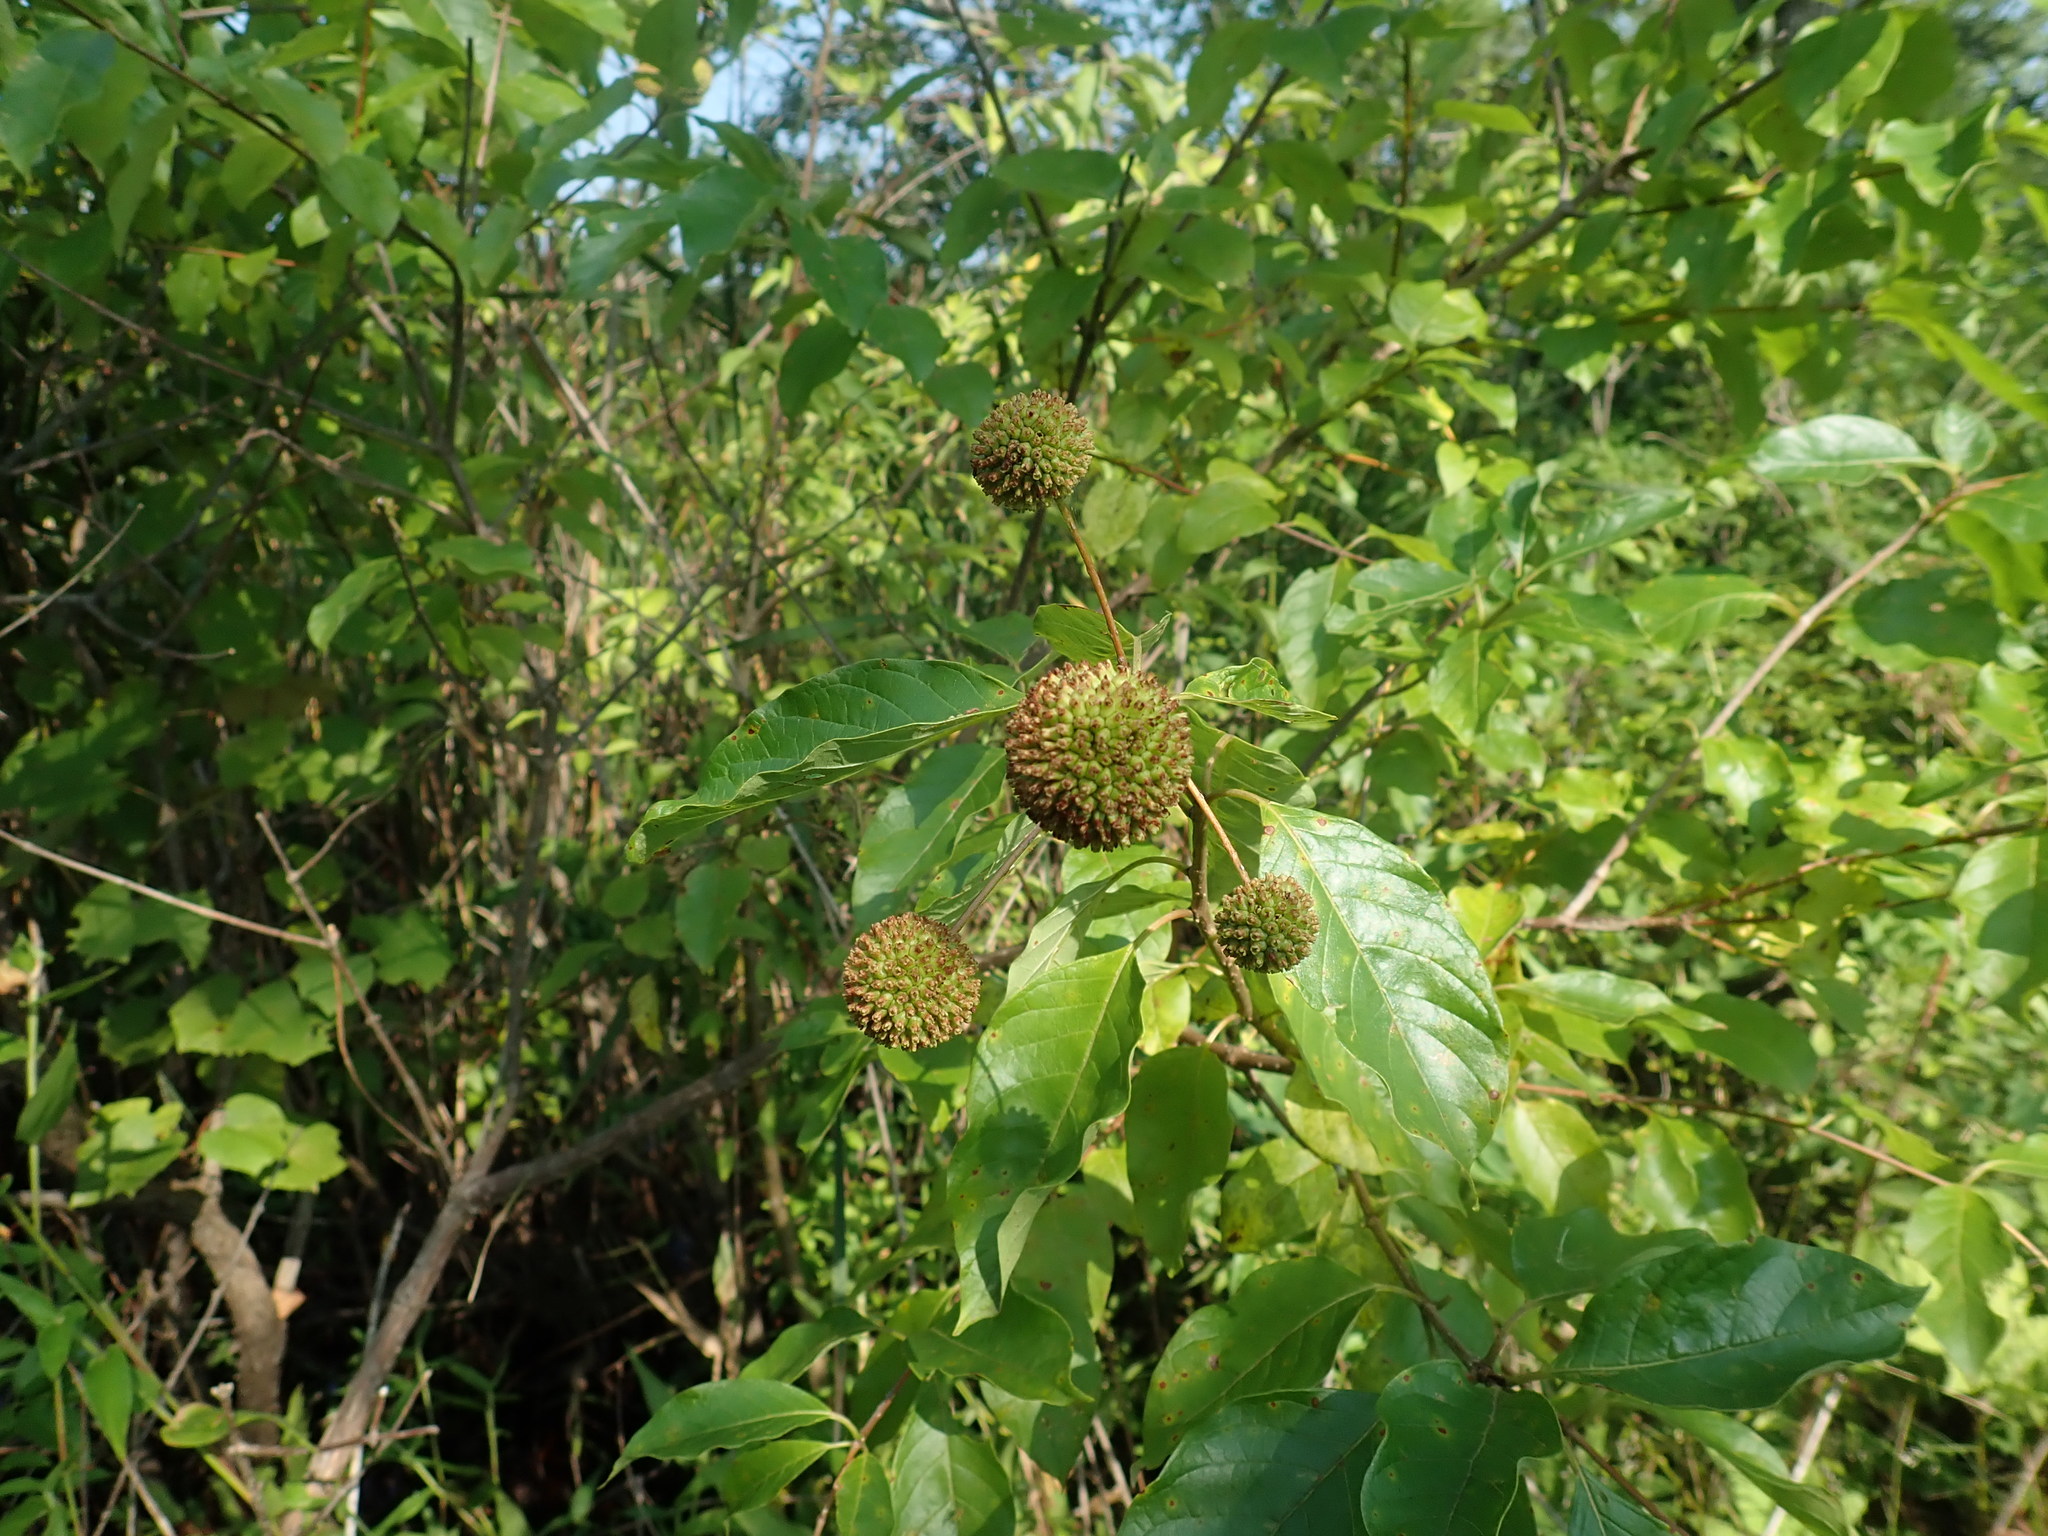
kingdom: Plantae
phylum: Tracheophyta
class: Magnoliopsida
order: Gentianales
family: Rubiaceae
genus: Cephalanthus
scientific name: Cephalanthus occidentalis
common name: Button-willow
